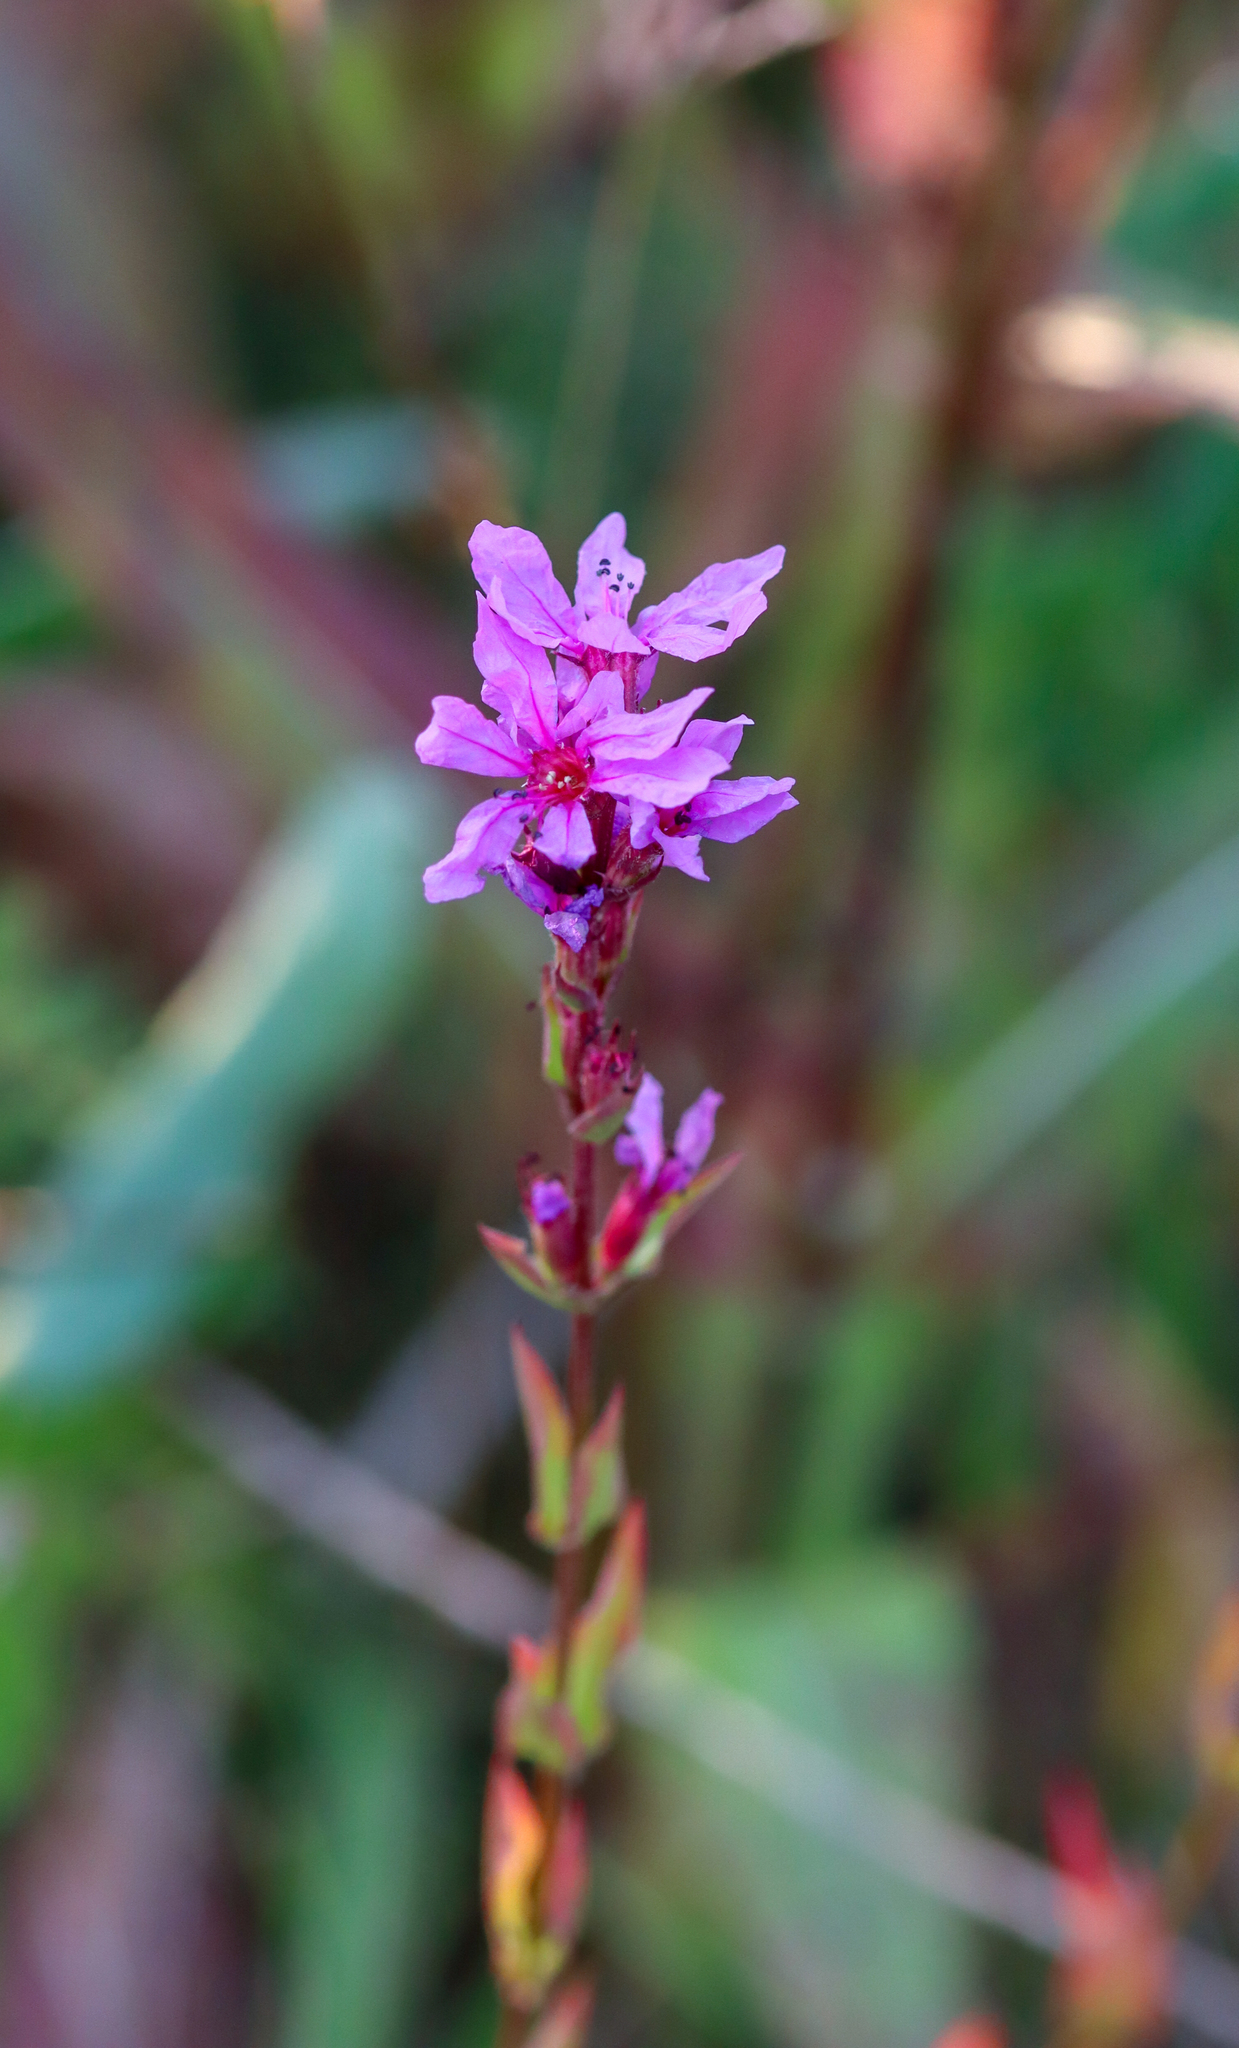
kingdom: Plantae
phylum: Tracheophyta
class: Magnoliopsida
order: Myrtales
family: Lythraceae
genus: Lythrum
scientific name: Lythrum salicaria
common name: Purple loosestrife
